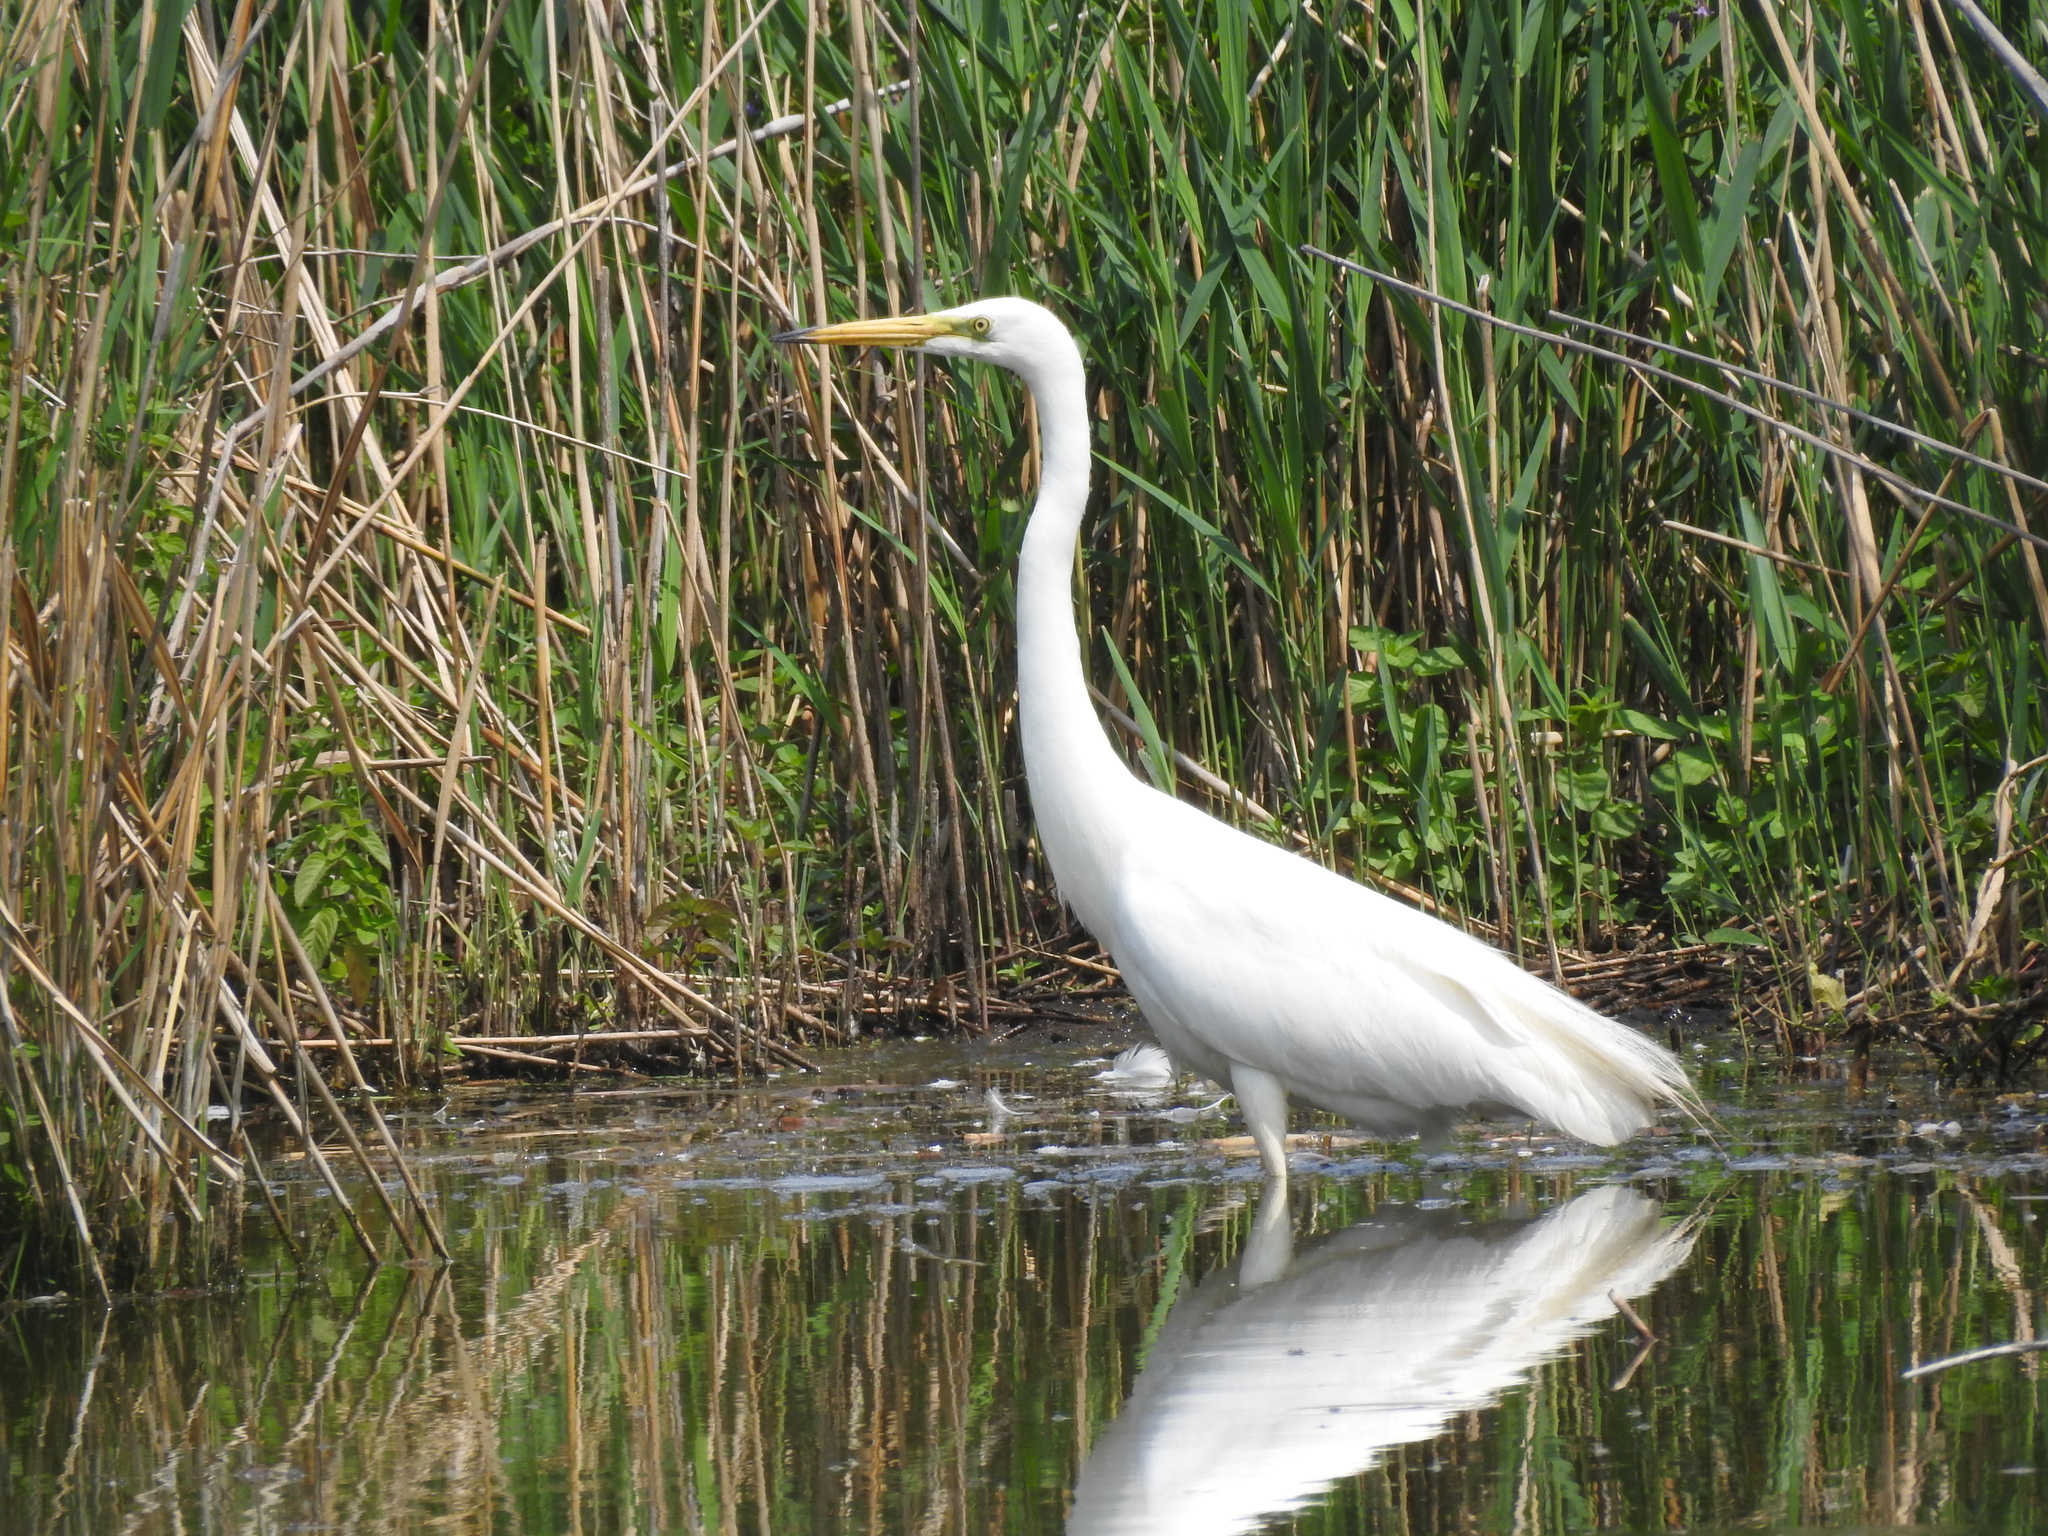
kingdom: Animalia
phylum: Chordata
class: Aves
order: Pelecaniformes
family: Ardeidae
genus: Ardea
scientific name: Ardea alba
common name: Great egret
